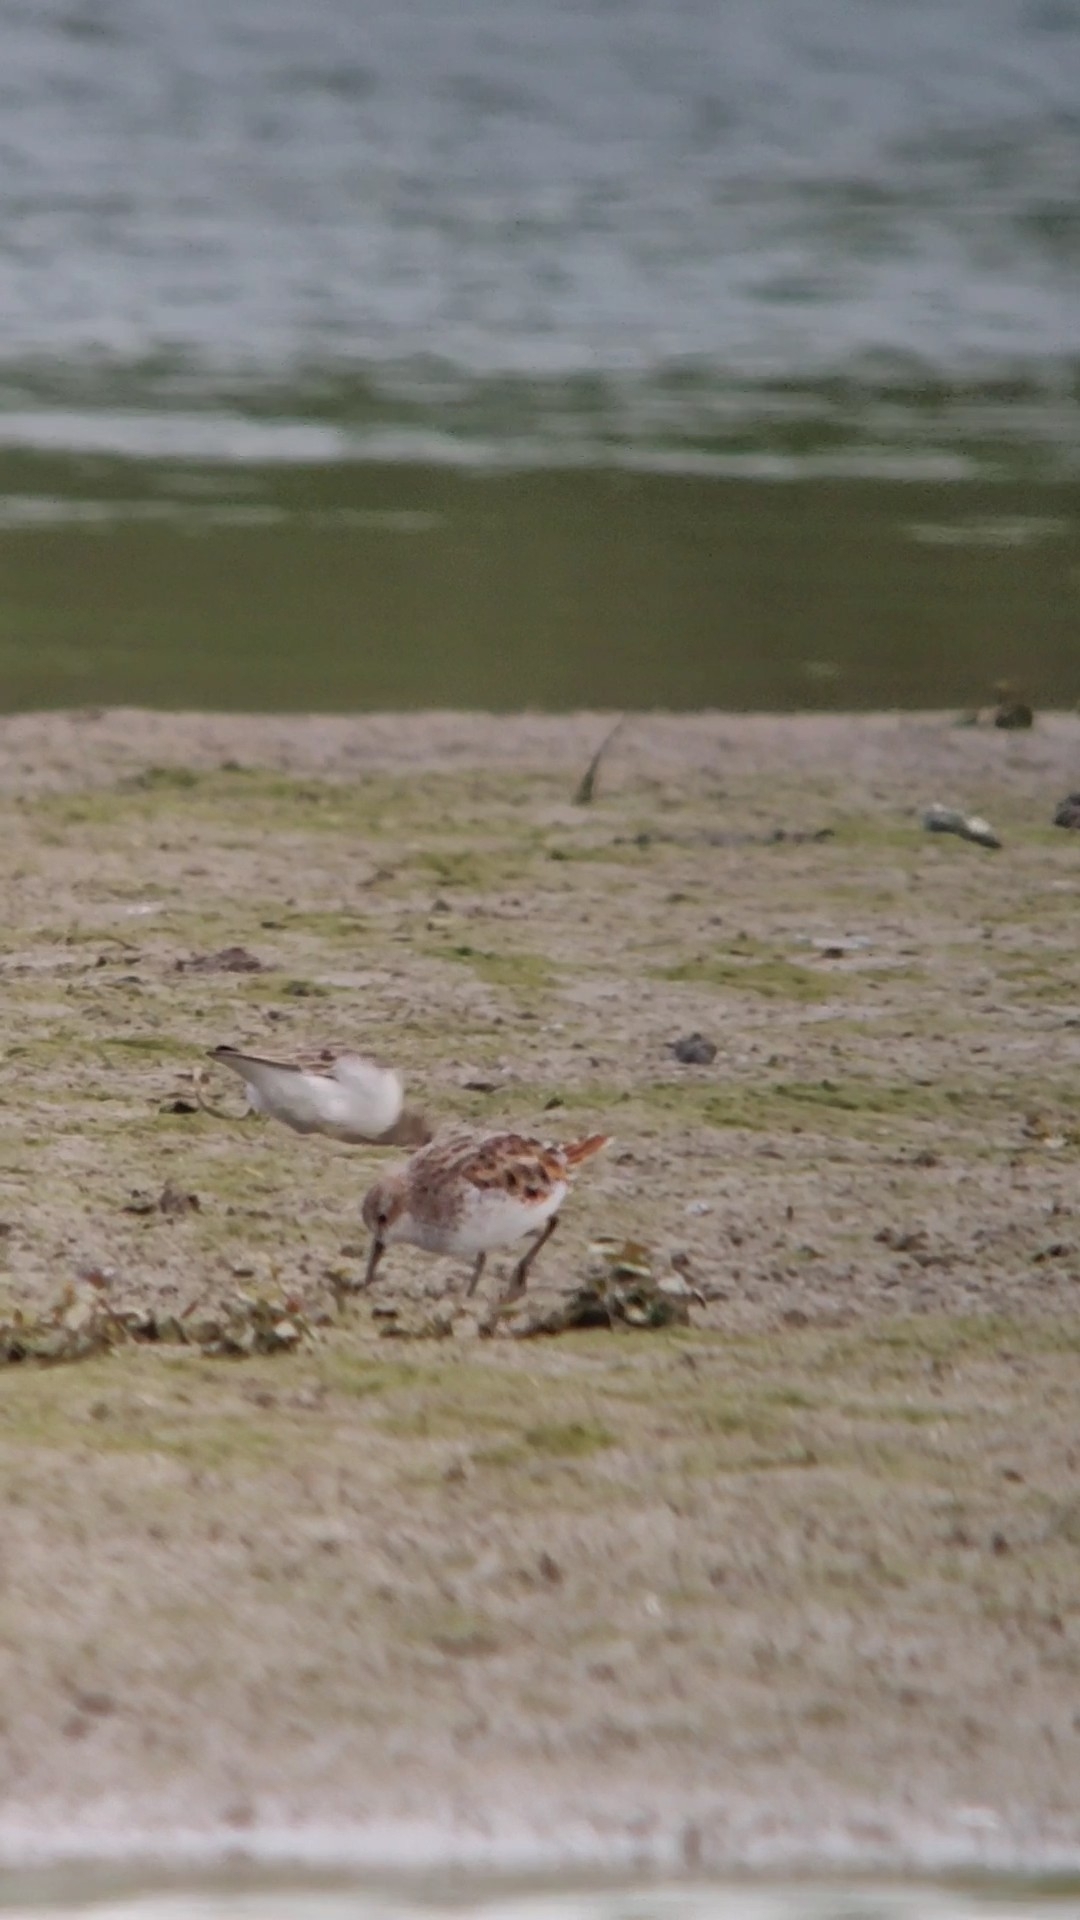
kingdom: Animalia
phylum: Chordata
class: Aves
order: Charadriiformes
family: Scolopacidae
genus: Calidris
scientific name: Calidris minuta
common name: Little stint
